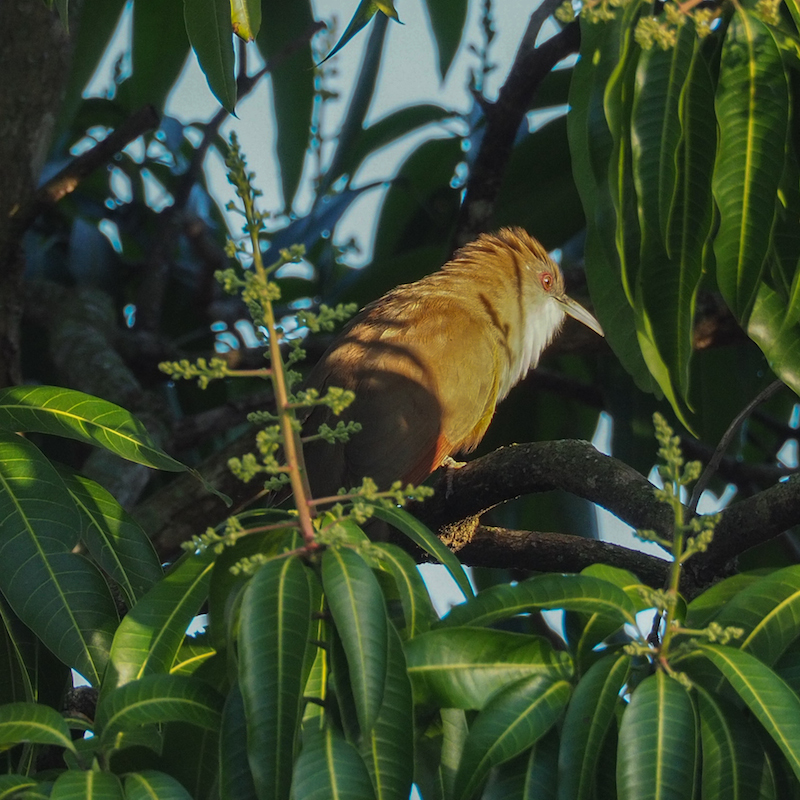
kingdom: Animalia
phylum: Chordata
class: Aves
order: Cuculiformes
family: Cuculidae
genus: Saurothera
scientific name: Saurothera merlini
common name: Great lizard-cuckoo
